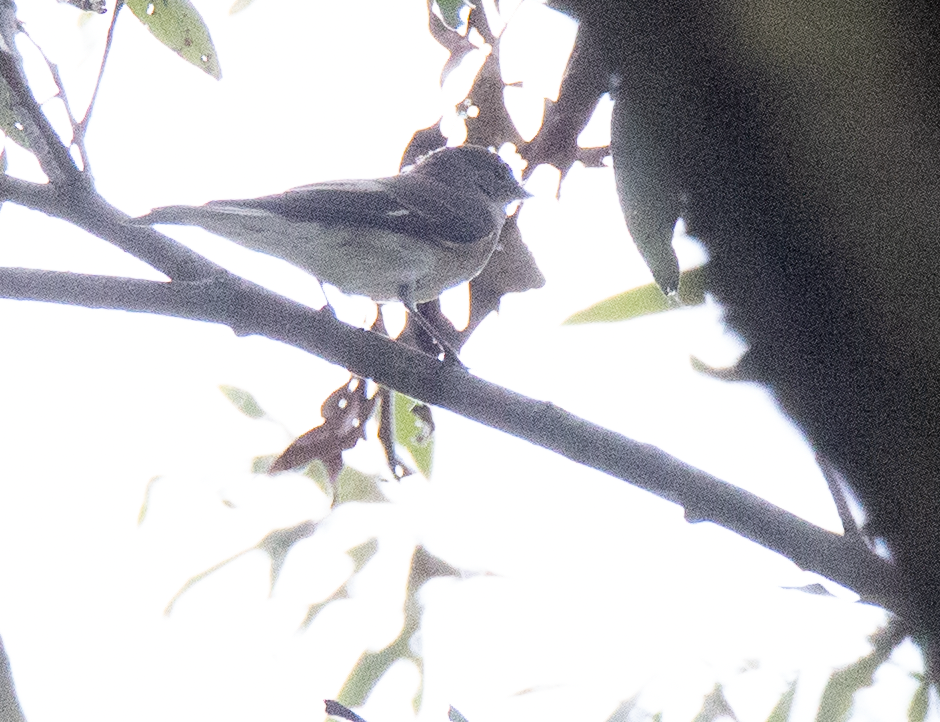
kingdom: Animalia
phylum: Chordata
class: Aves
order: Passeriformes
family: Muscicapidae
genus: Ficedula
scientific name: Ficedula hypoleuca
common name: European pied flycatcher
